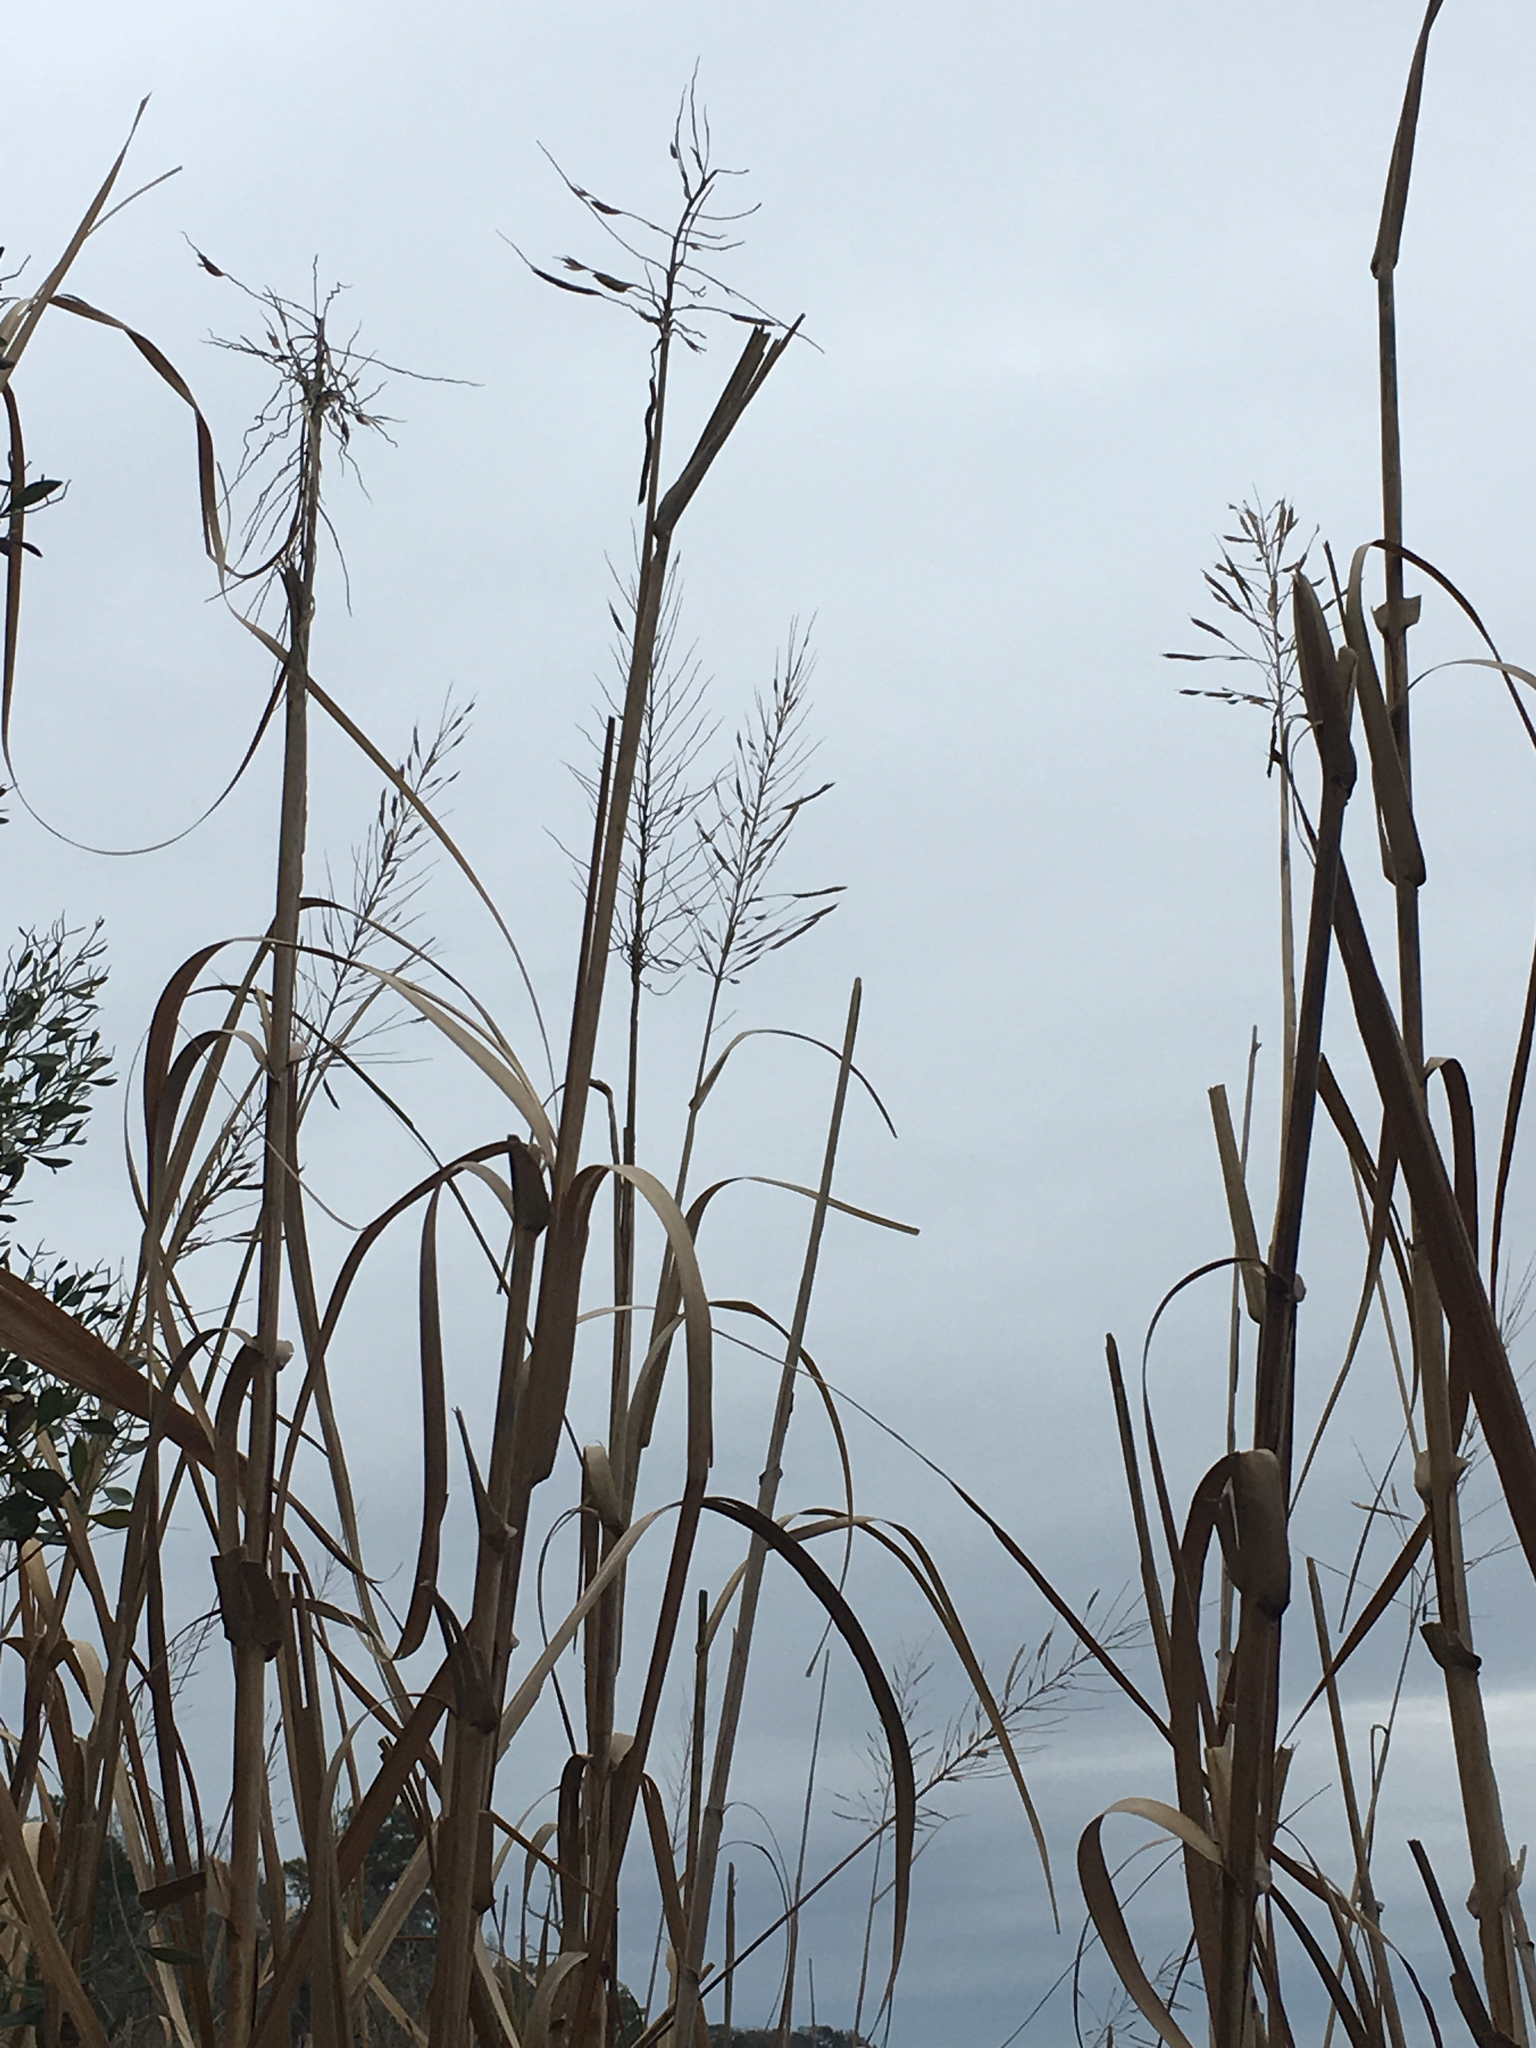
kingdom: Plantae
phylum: Tracheophyta
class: Liliopsida
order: Poales
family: Poaceae
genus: Sporobolus
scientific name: Sporobolus cynosuroides
